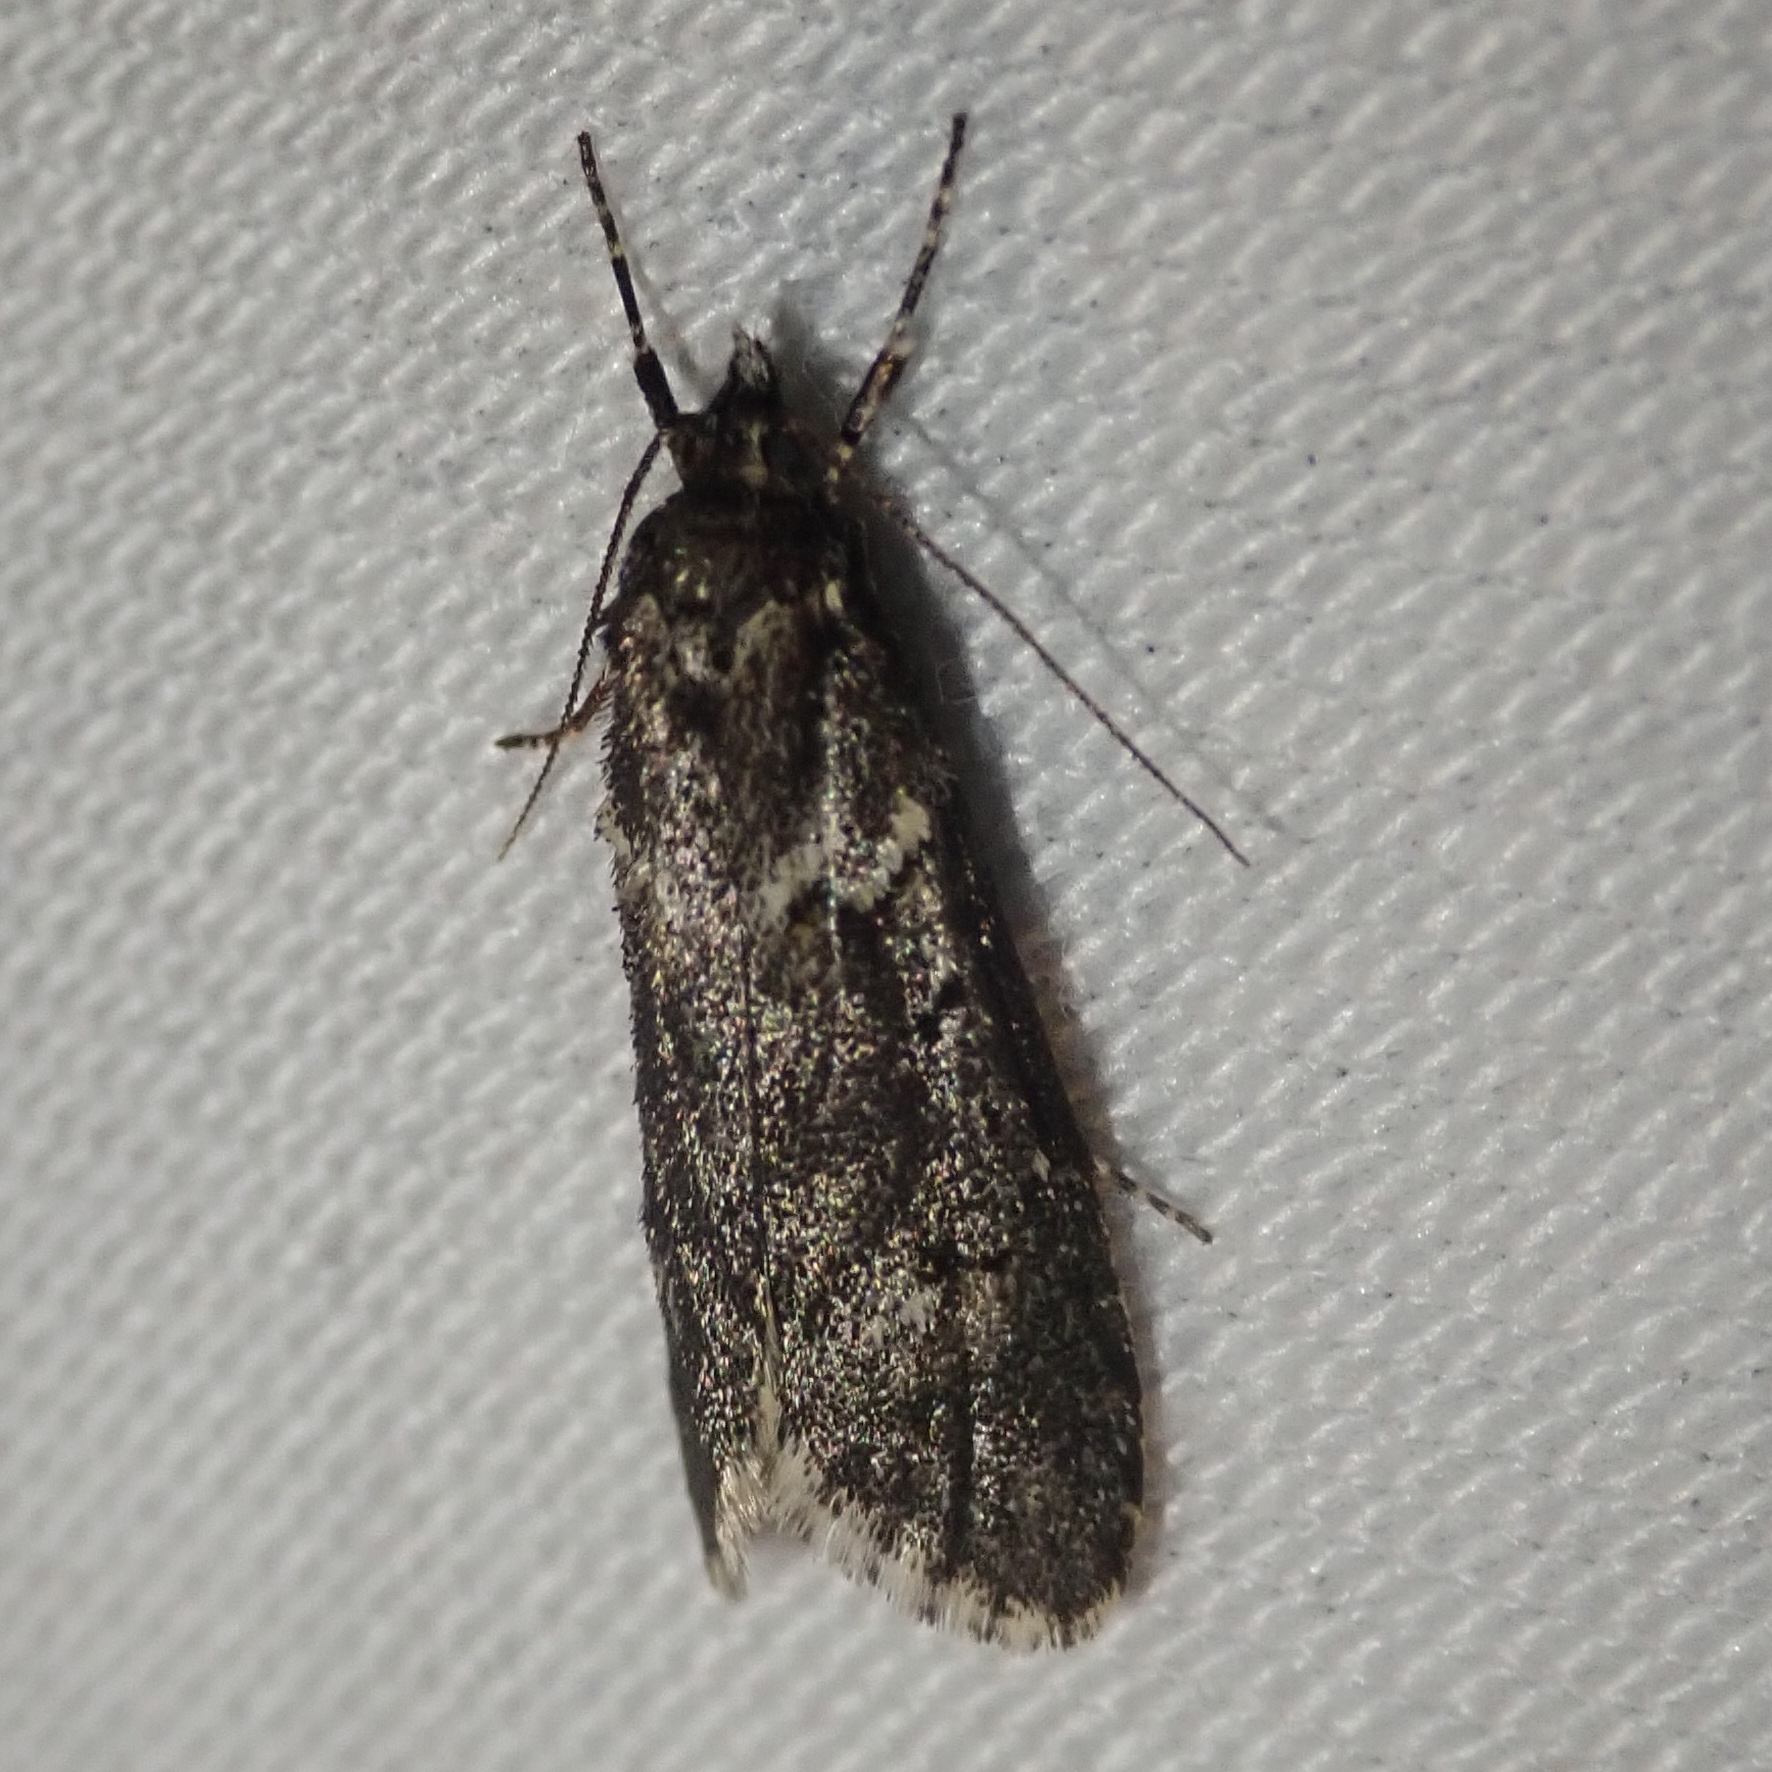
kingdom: Animalia
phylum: Arthropoda
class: Insecta
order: Lepidoptera
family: Lypusidae
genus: Diurnea
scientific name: Diurnea fagella
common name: March tubic
